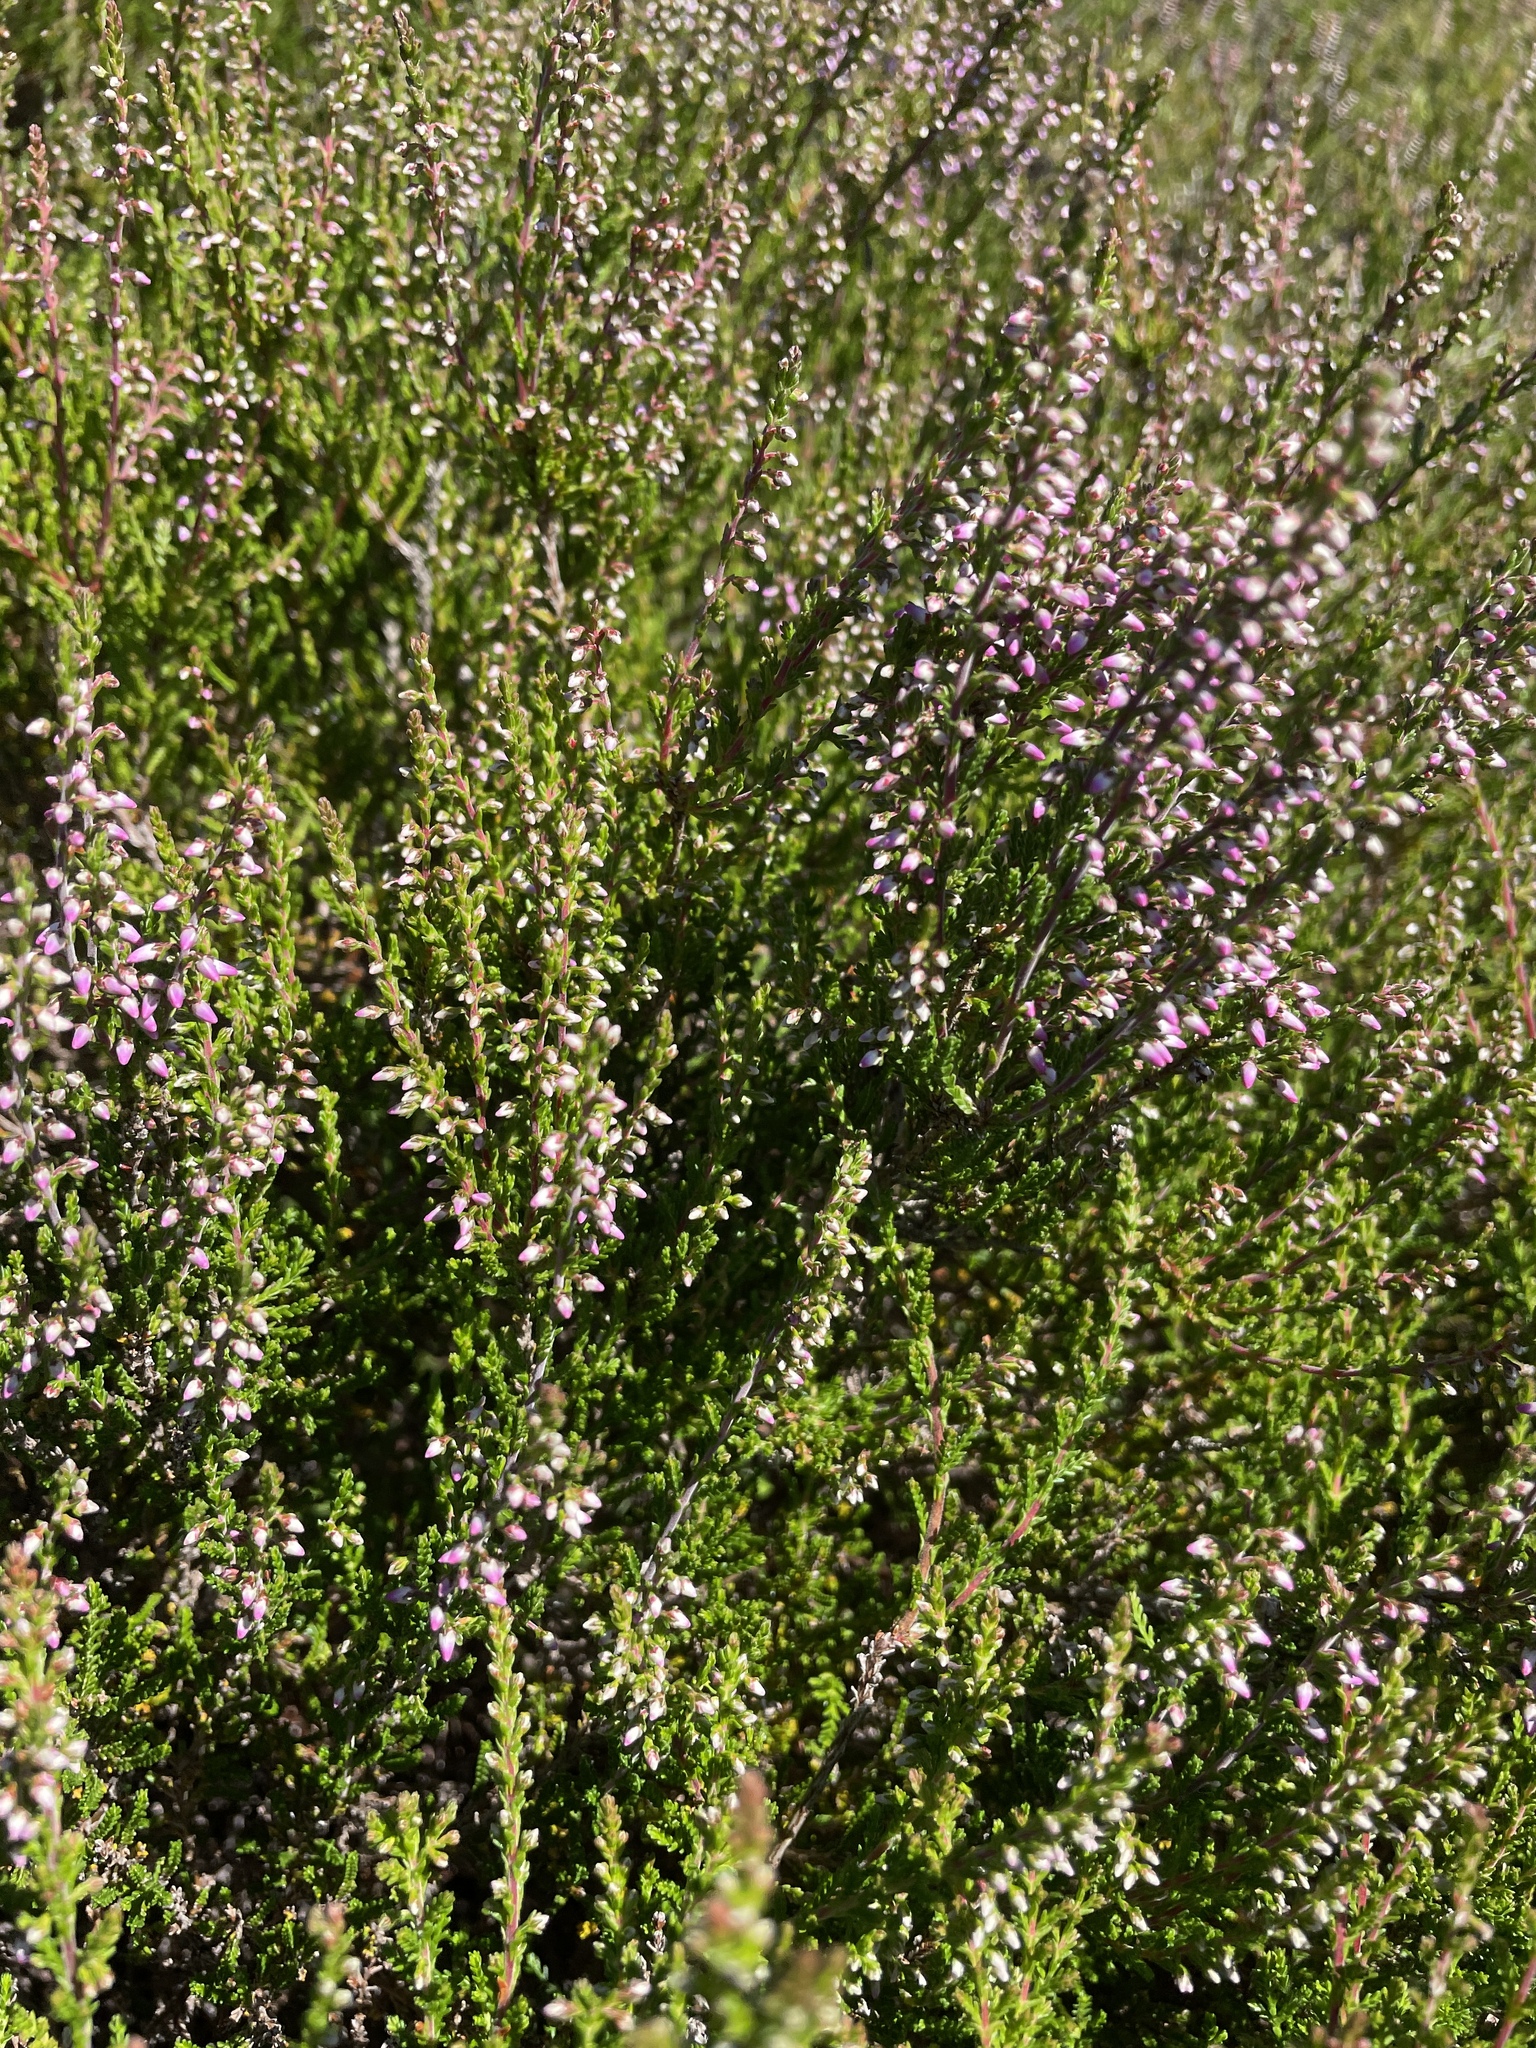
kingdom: Plantae
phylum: Tracheophyta
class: Magnoliopsida
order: Ericales
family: Ericaceae
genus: Calluna
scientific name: Calluna vulgaris
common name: Heather
